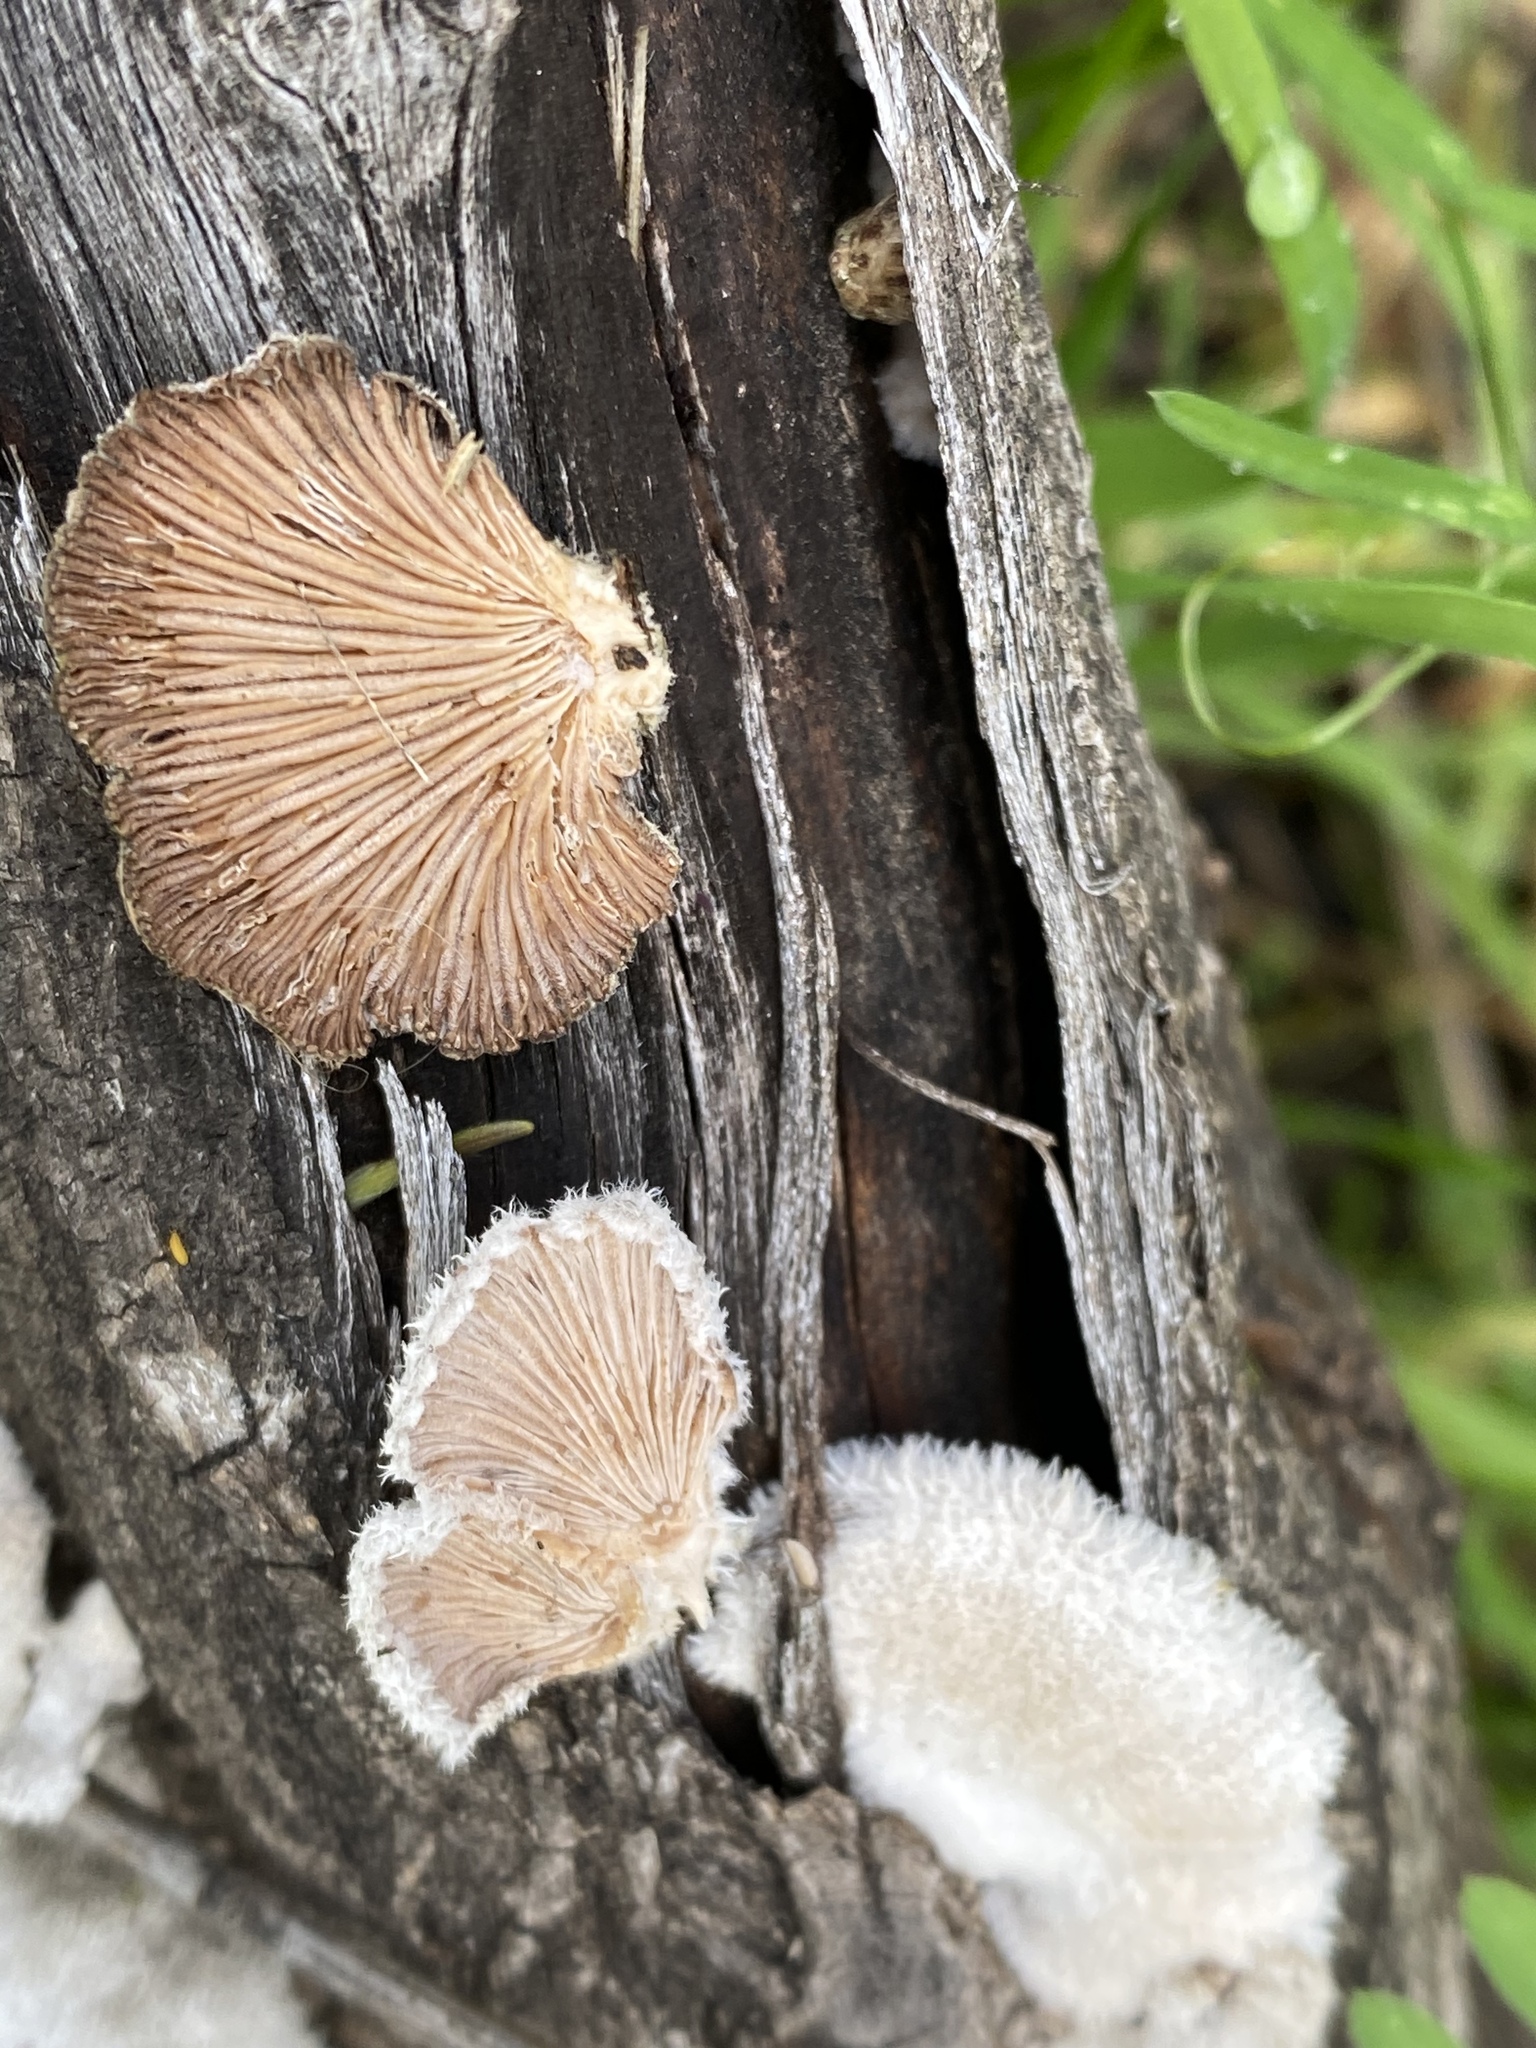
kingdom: Fungi
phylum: Basidiomycota
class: Agaricomycetes
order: Agaricales
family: Schizophyllaceae
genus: Schizophyllum
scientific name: Schizophyllum commune
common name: Common porecrust
